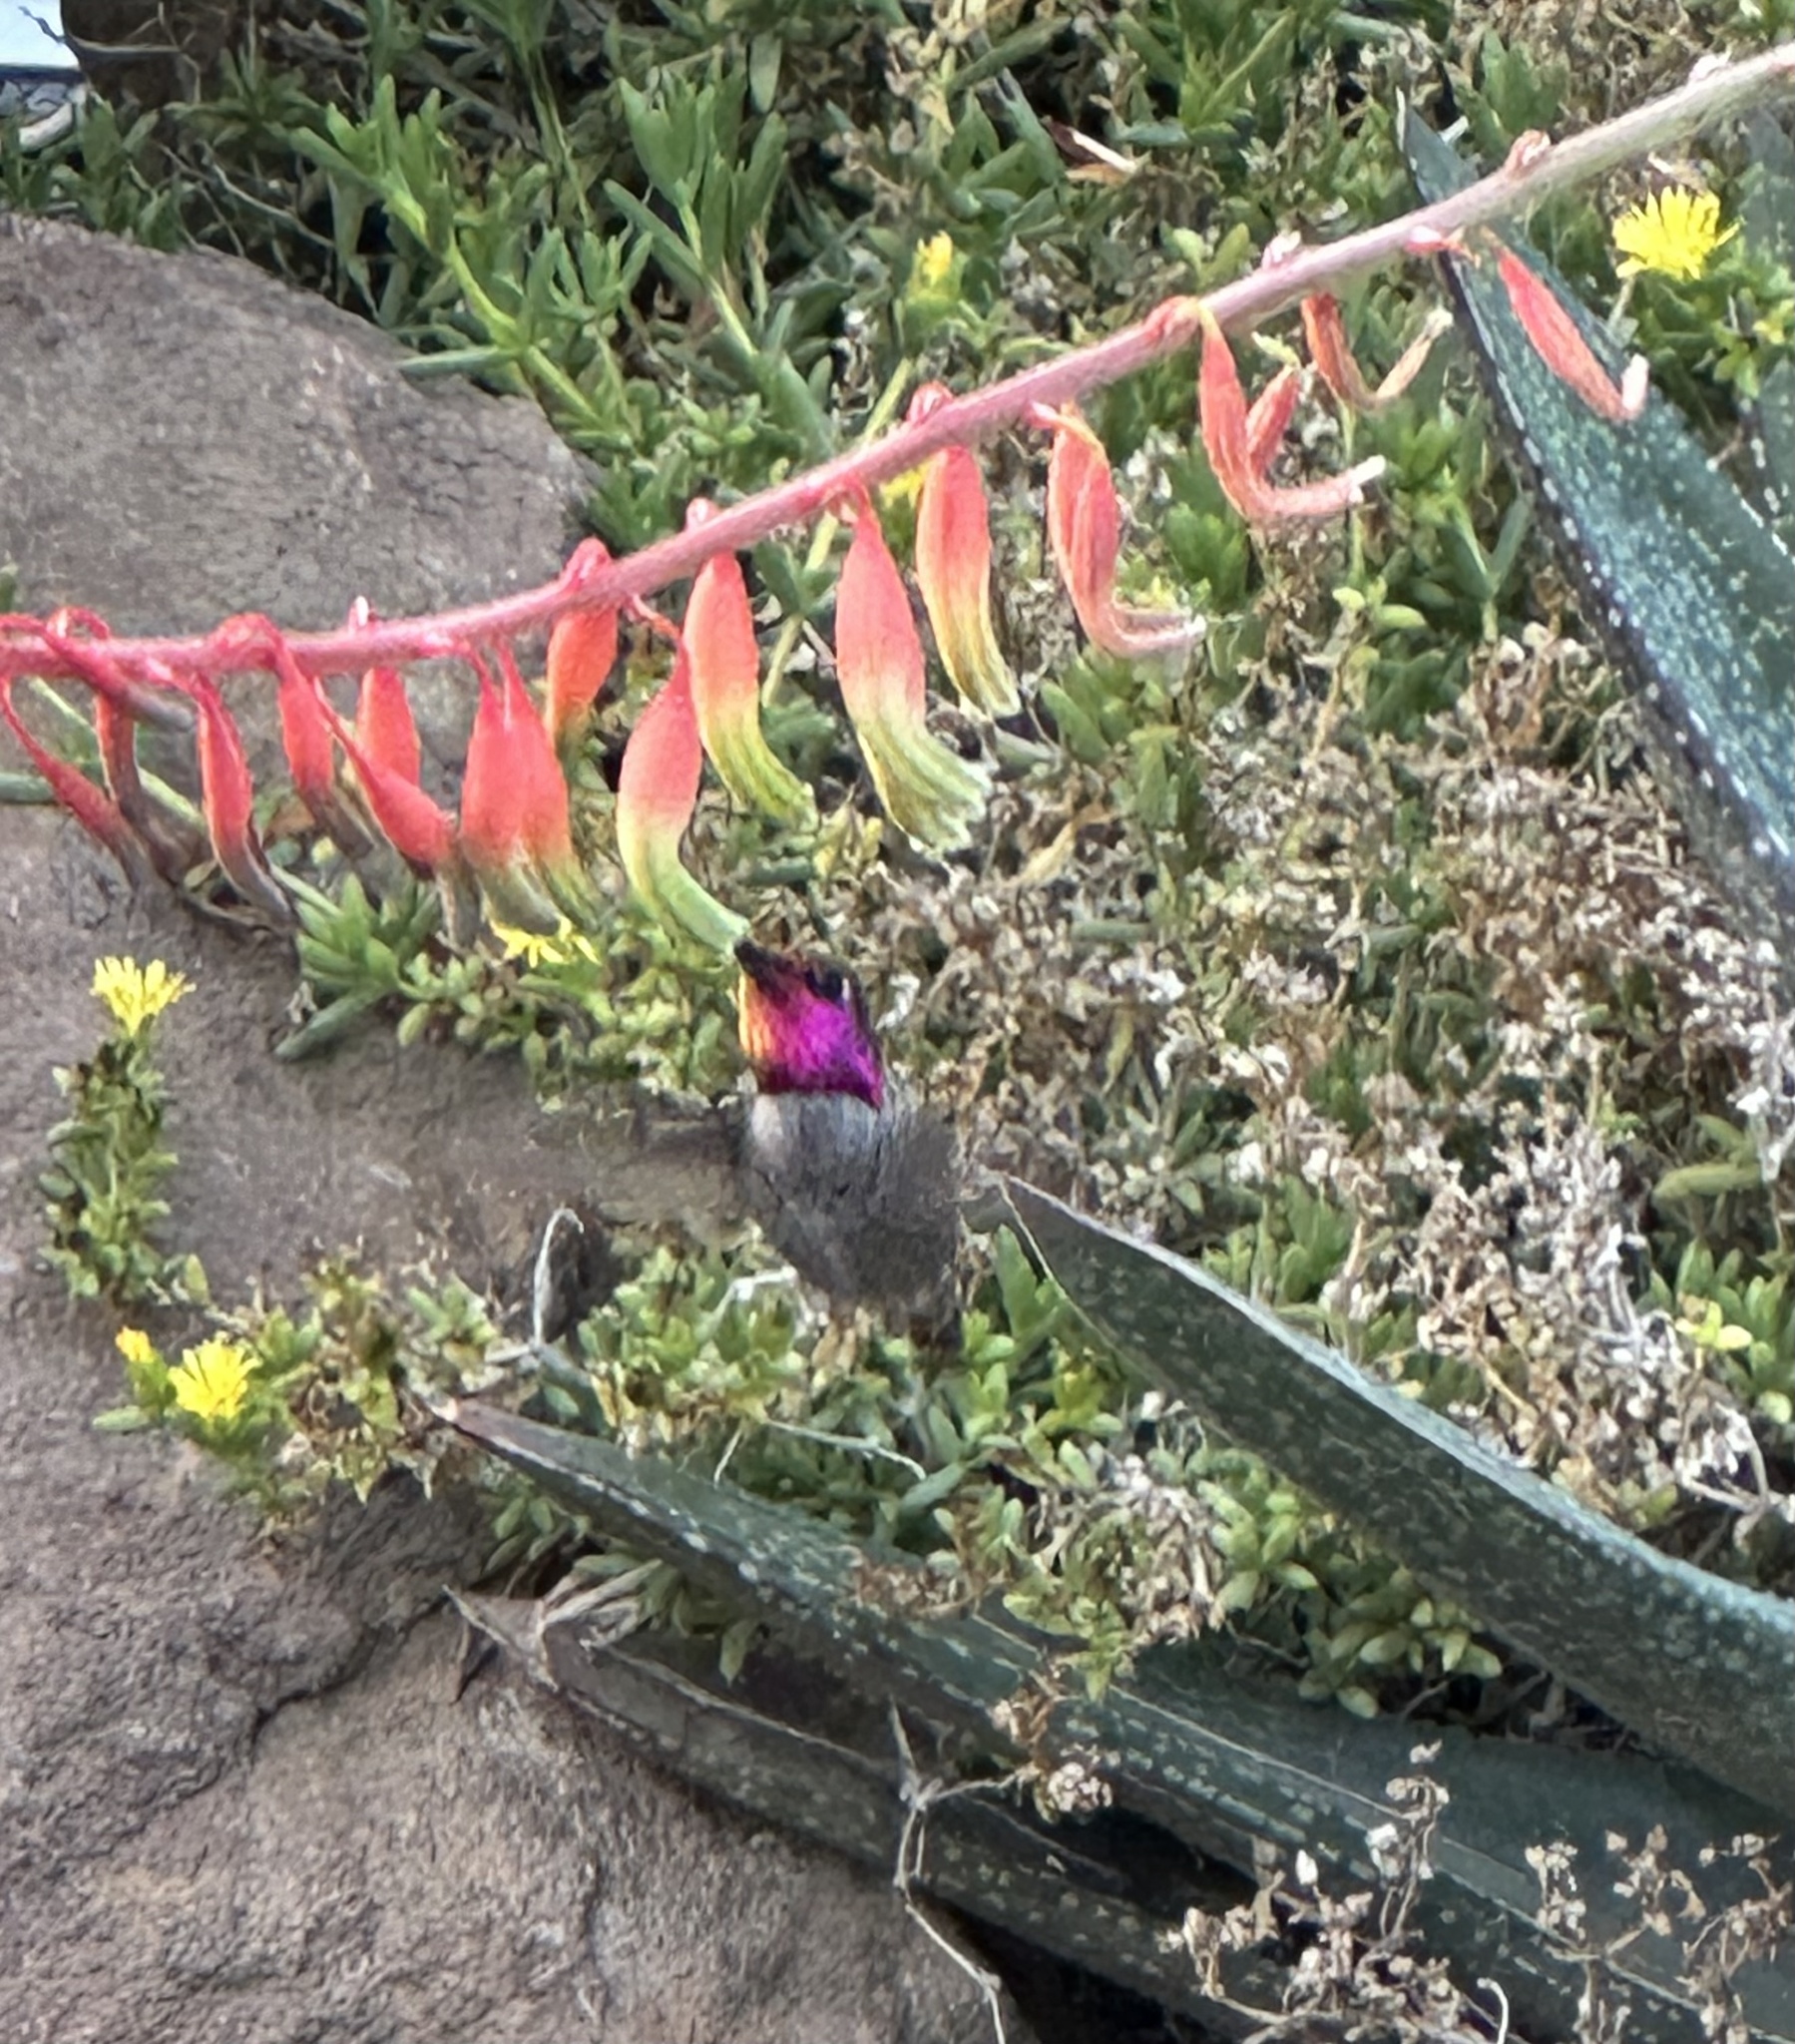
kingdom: Animalia
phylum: Chordata
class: Aves
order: Apodiformes
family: Trochilidae
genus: Calypte
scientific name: Calypte anna
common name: Anna's hummingbird
